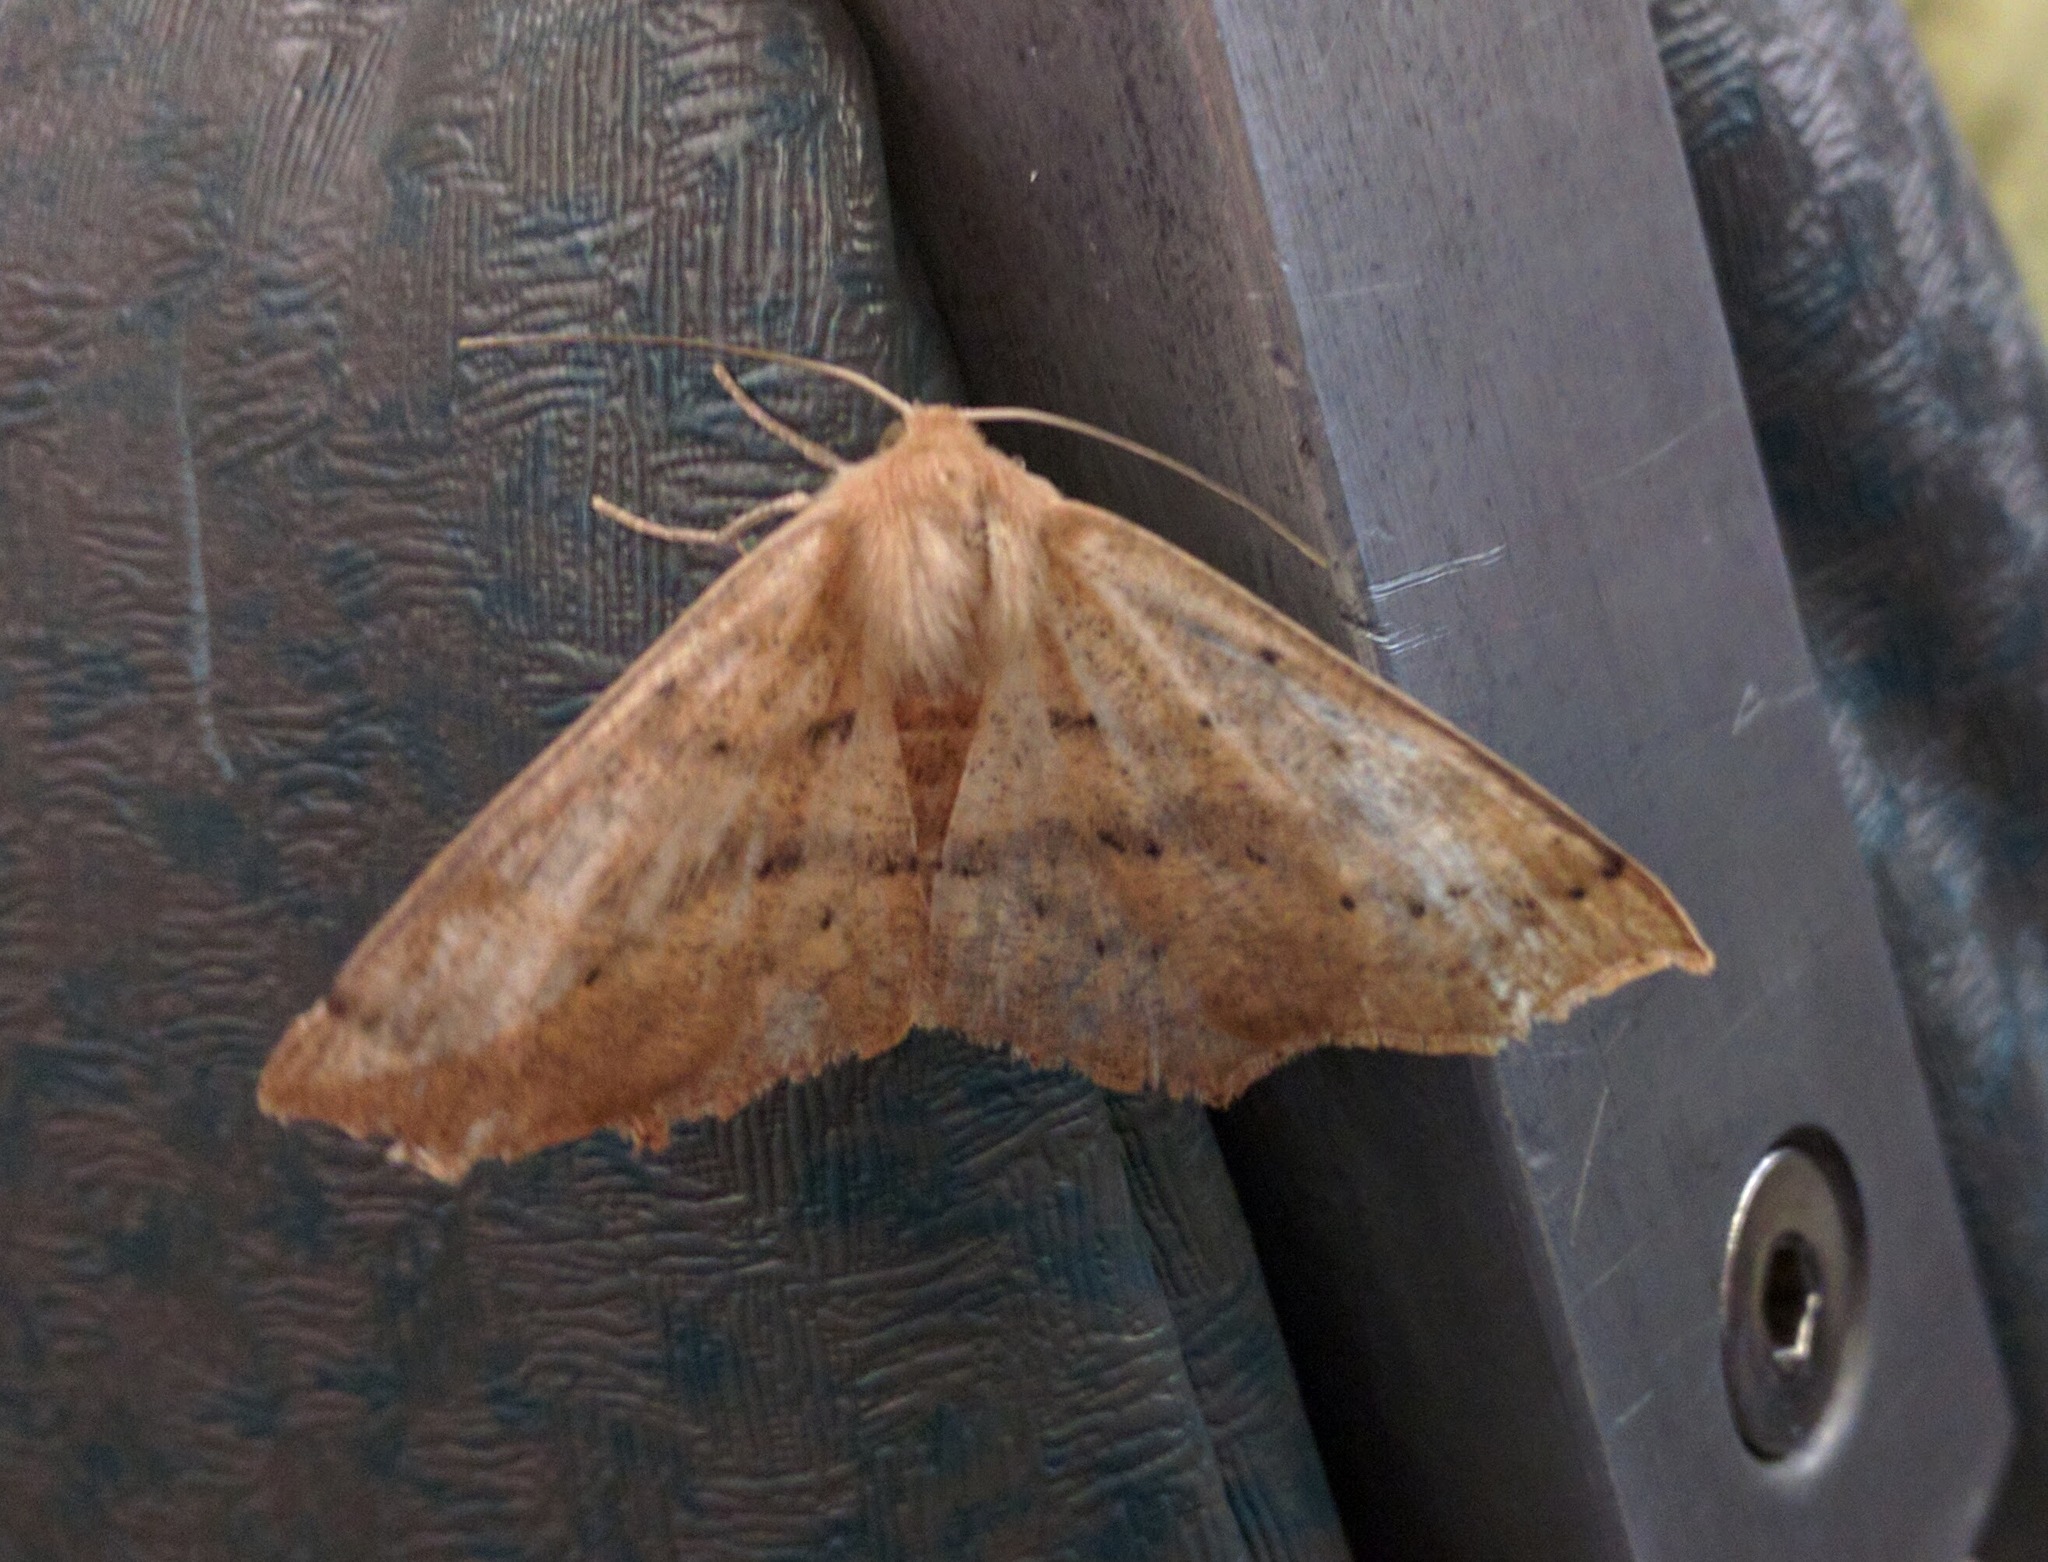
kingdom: Animalia
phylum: Arthropoda
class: Insecta
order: Lepidoptera
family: Geometridae
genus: Sabulodes
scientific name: Sabulodes aegrotata
